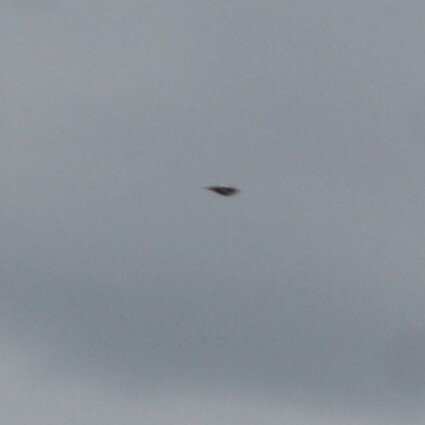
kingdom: Animalia
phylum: Chordata
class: Aves
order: Piciformes
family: Picidae
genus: Dendrocopos
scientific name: Dendrocopos major
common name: Great spotted woodpecker
